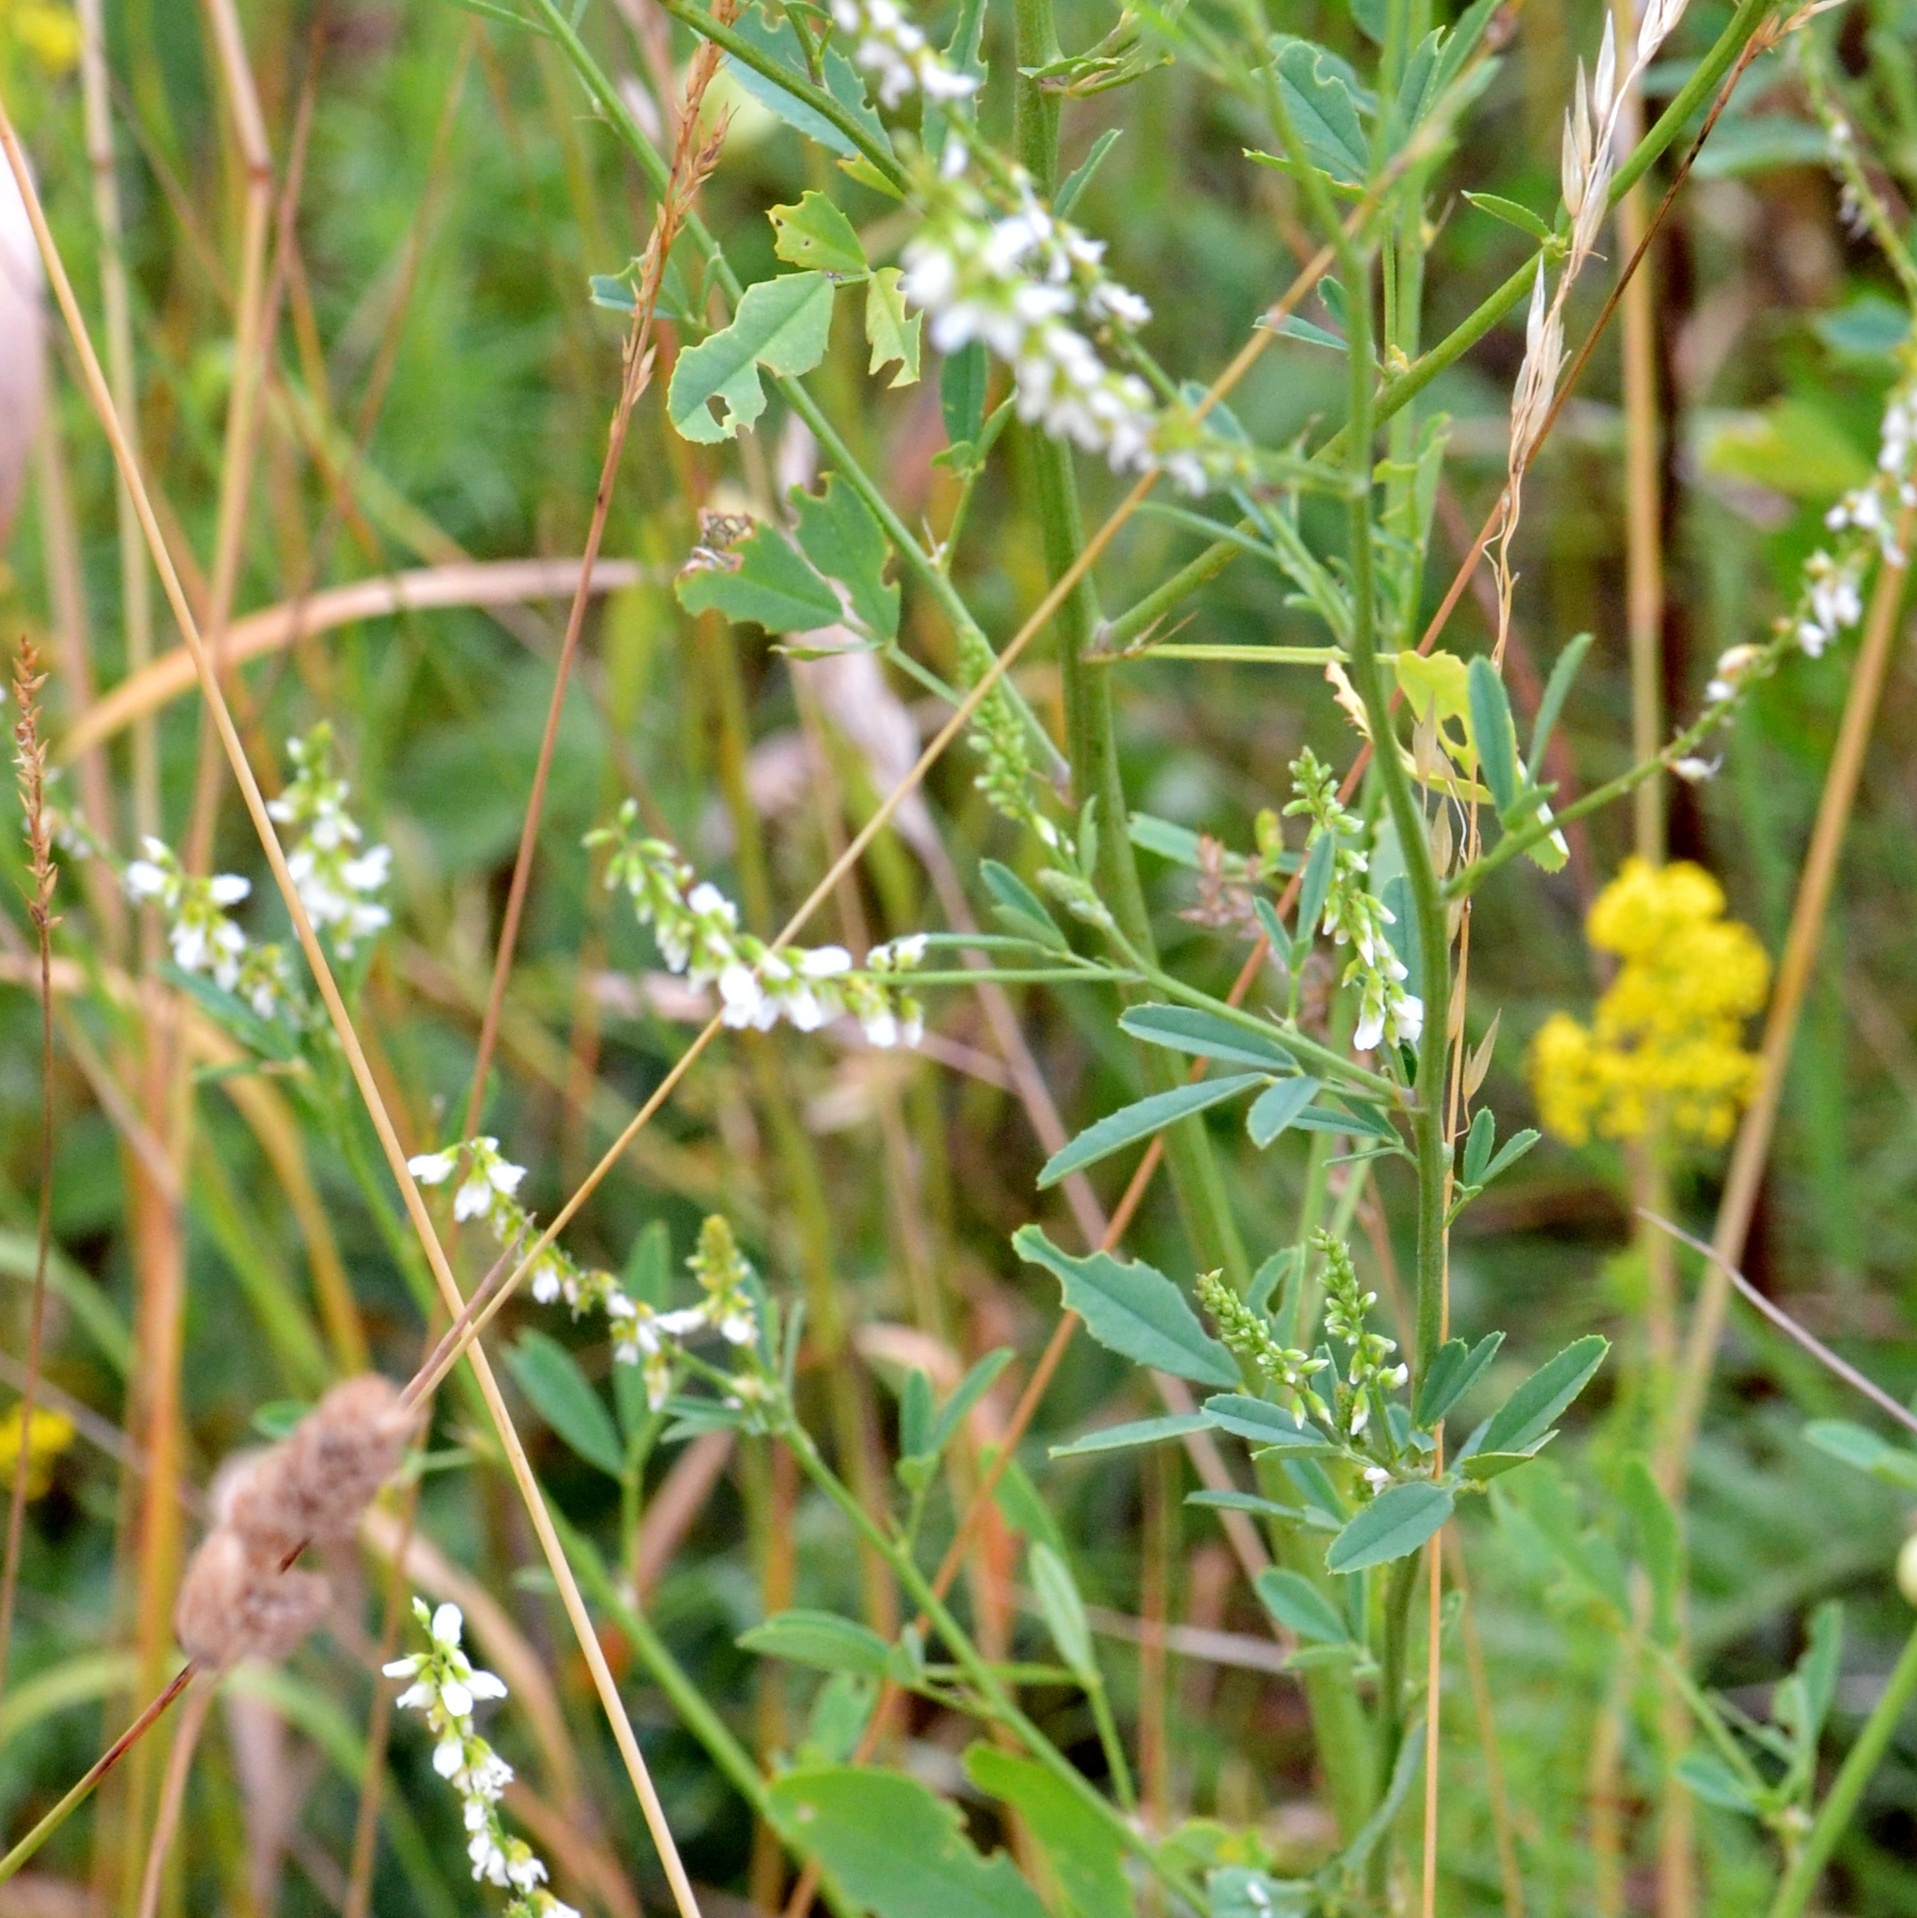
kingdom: Plantae
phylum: Tracheophyta
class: Magnoliopsida
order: Fabales
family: Fabaceae
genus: Melilotus
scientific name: Melilotus albus
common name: White melilot
